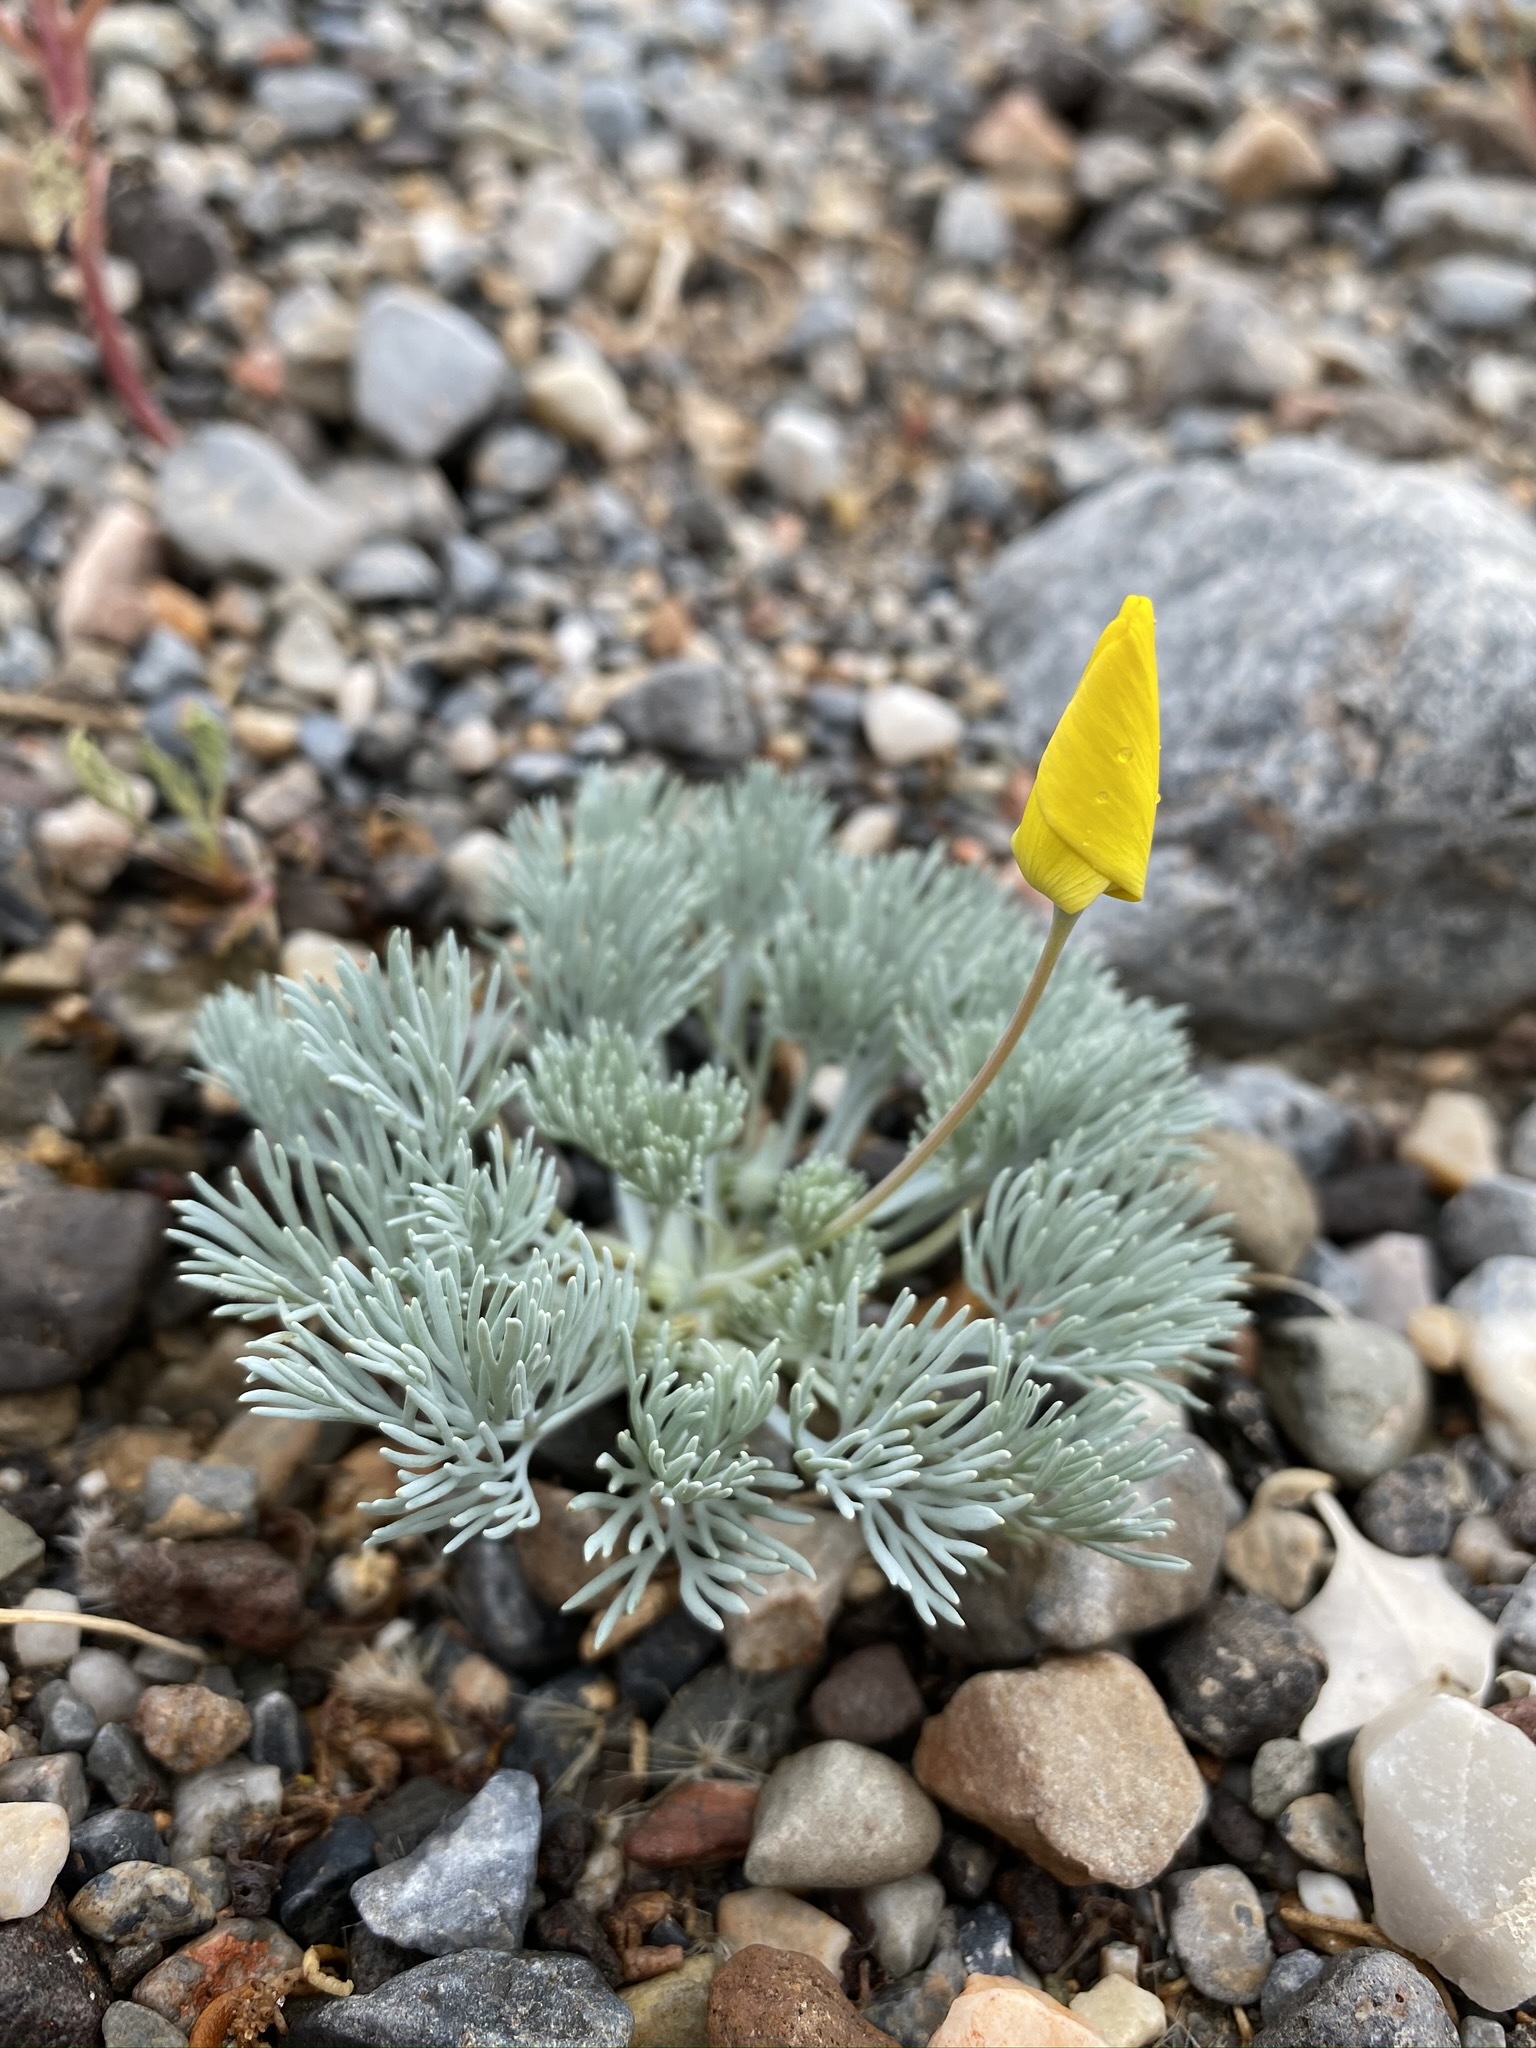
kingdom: Plantae
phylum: Tracheophyta
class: Magnoliopsida
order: Ranunculales
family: Papaveraceae
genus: Eschscholzia
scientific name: Eschscholzia glyptosperma
